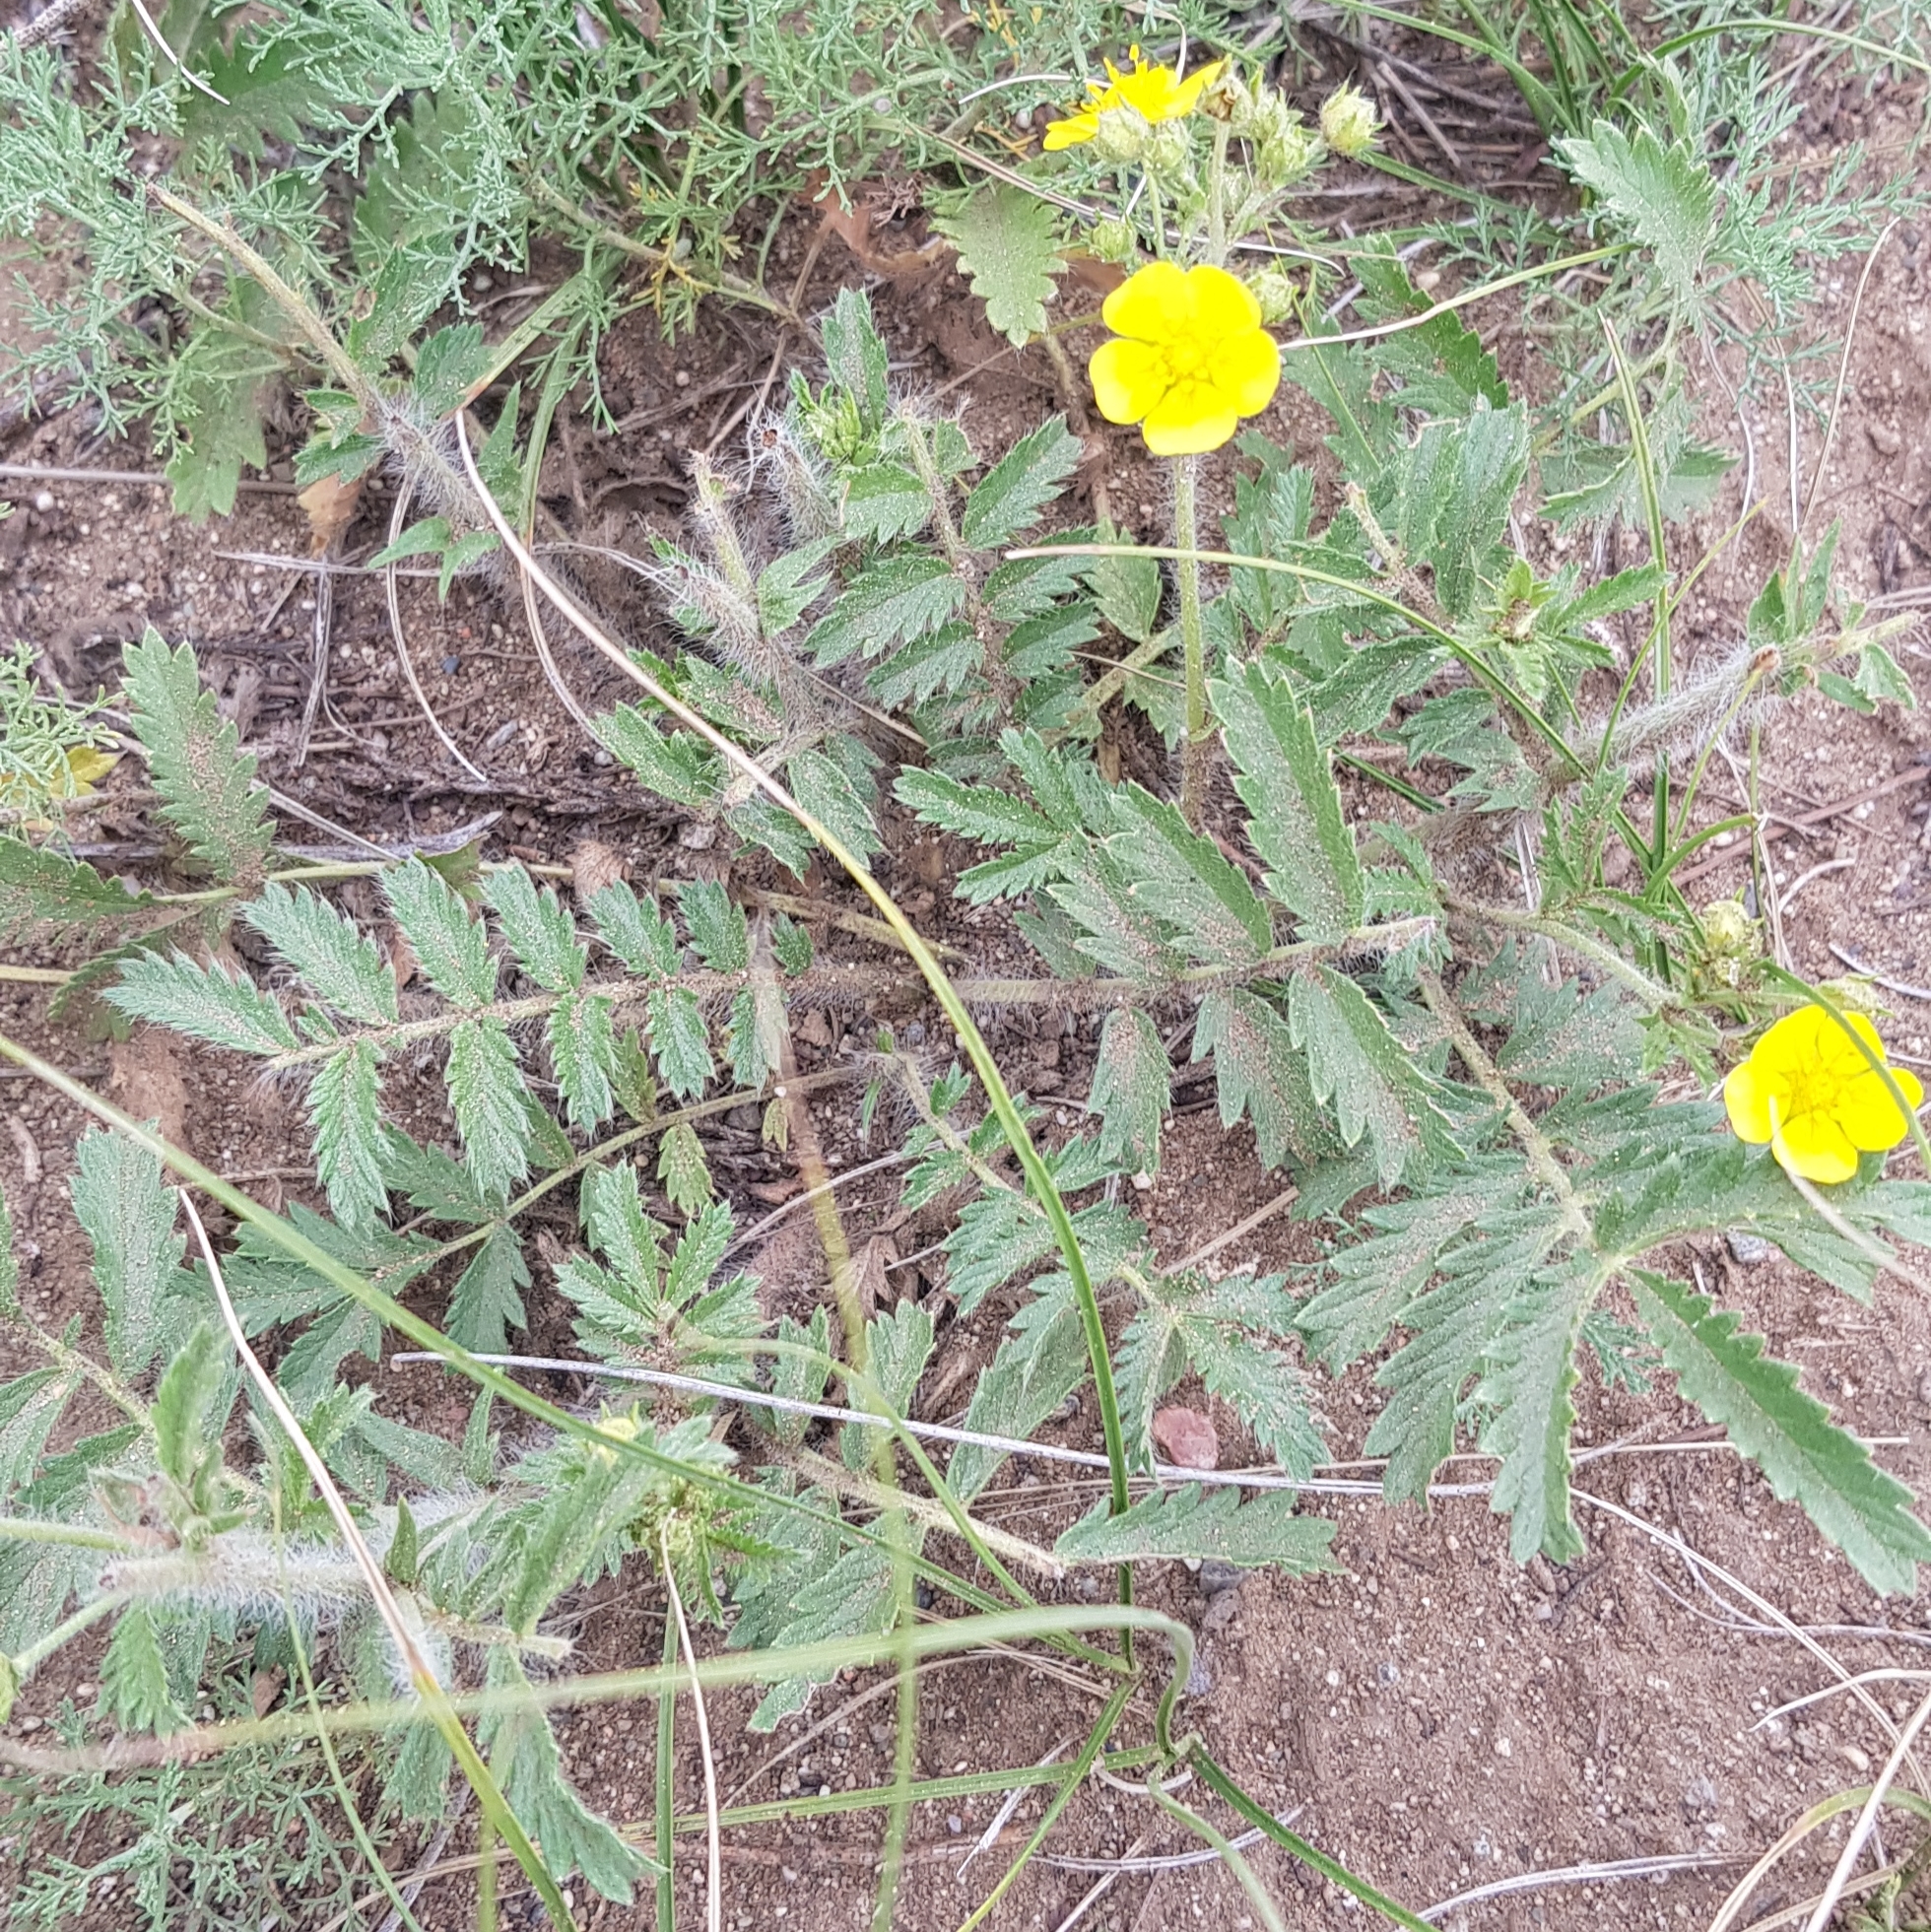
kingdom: Plantae
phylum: Tracheophyta
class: Magnoliopsida
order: Rosales
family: Rosaceae
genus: Potentilla
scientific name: Potentilla tanacetifolia
